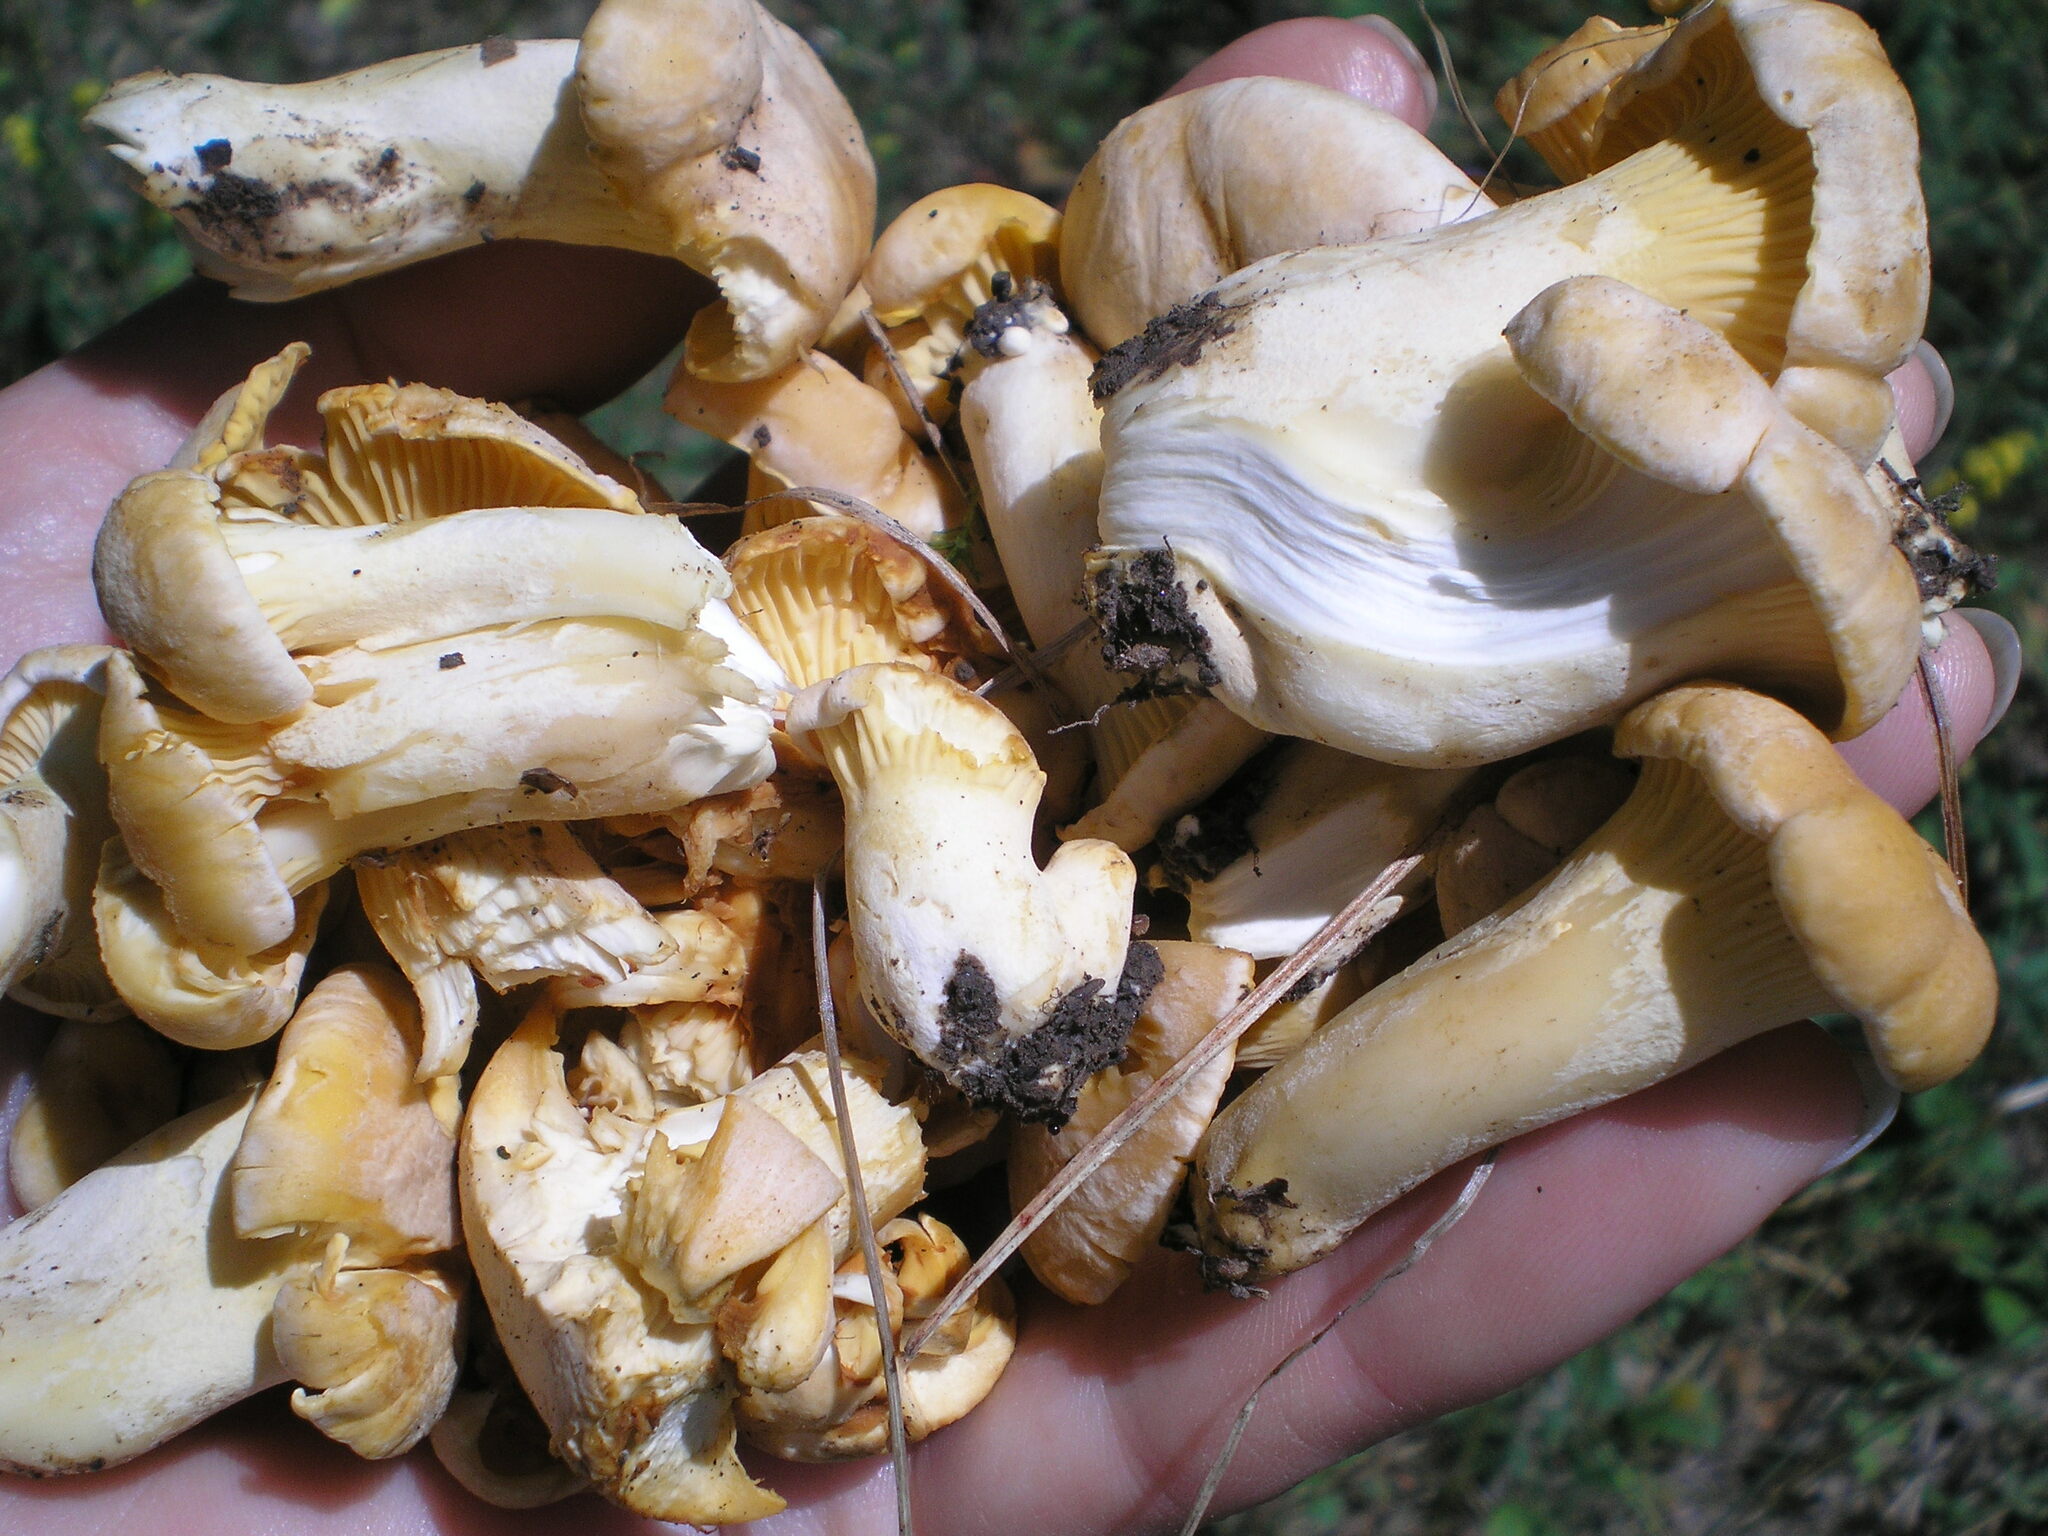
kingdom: Fungi
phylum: Basidiomycota
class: Agaricomycetes
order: Cantharellales
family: Hydnaceae
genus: Cantharellus
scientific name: Cantharellus pallens
